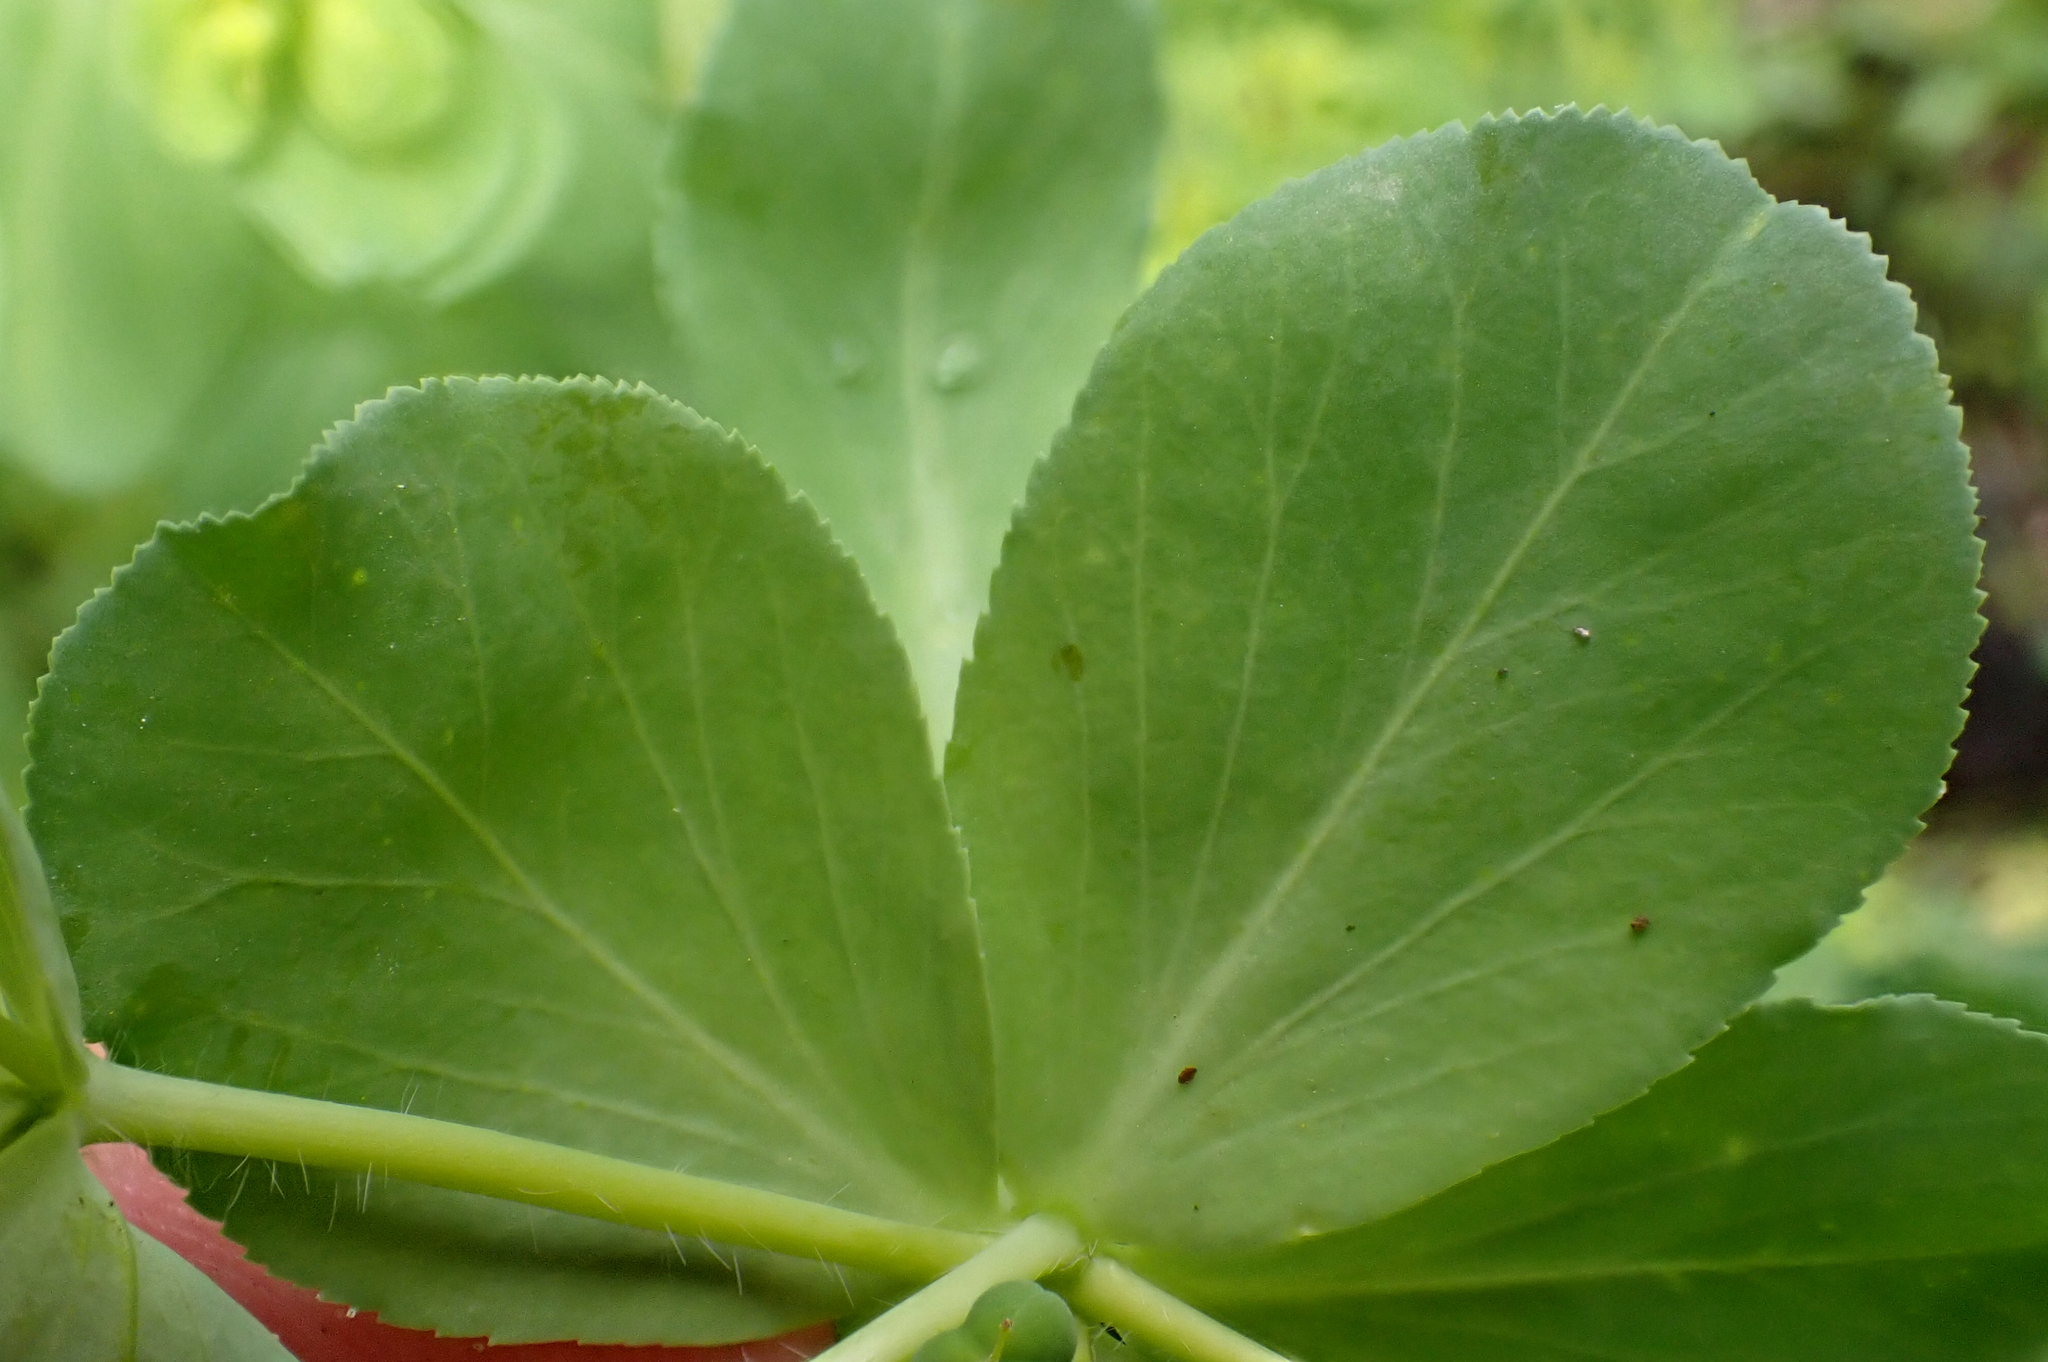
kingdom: Plantae
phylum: Tracheophyta
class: Magnoliopsida
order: Malpighiales
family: Euphorbiaceae
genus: Euphorbia
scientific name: Euphorbia helioscopia
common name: Sun spurge
